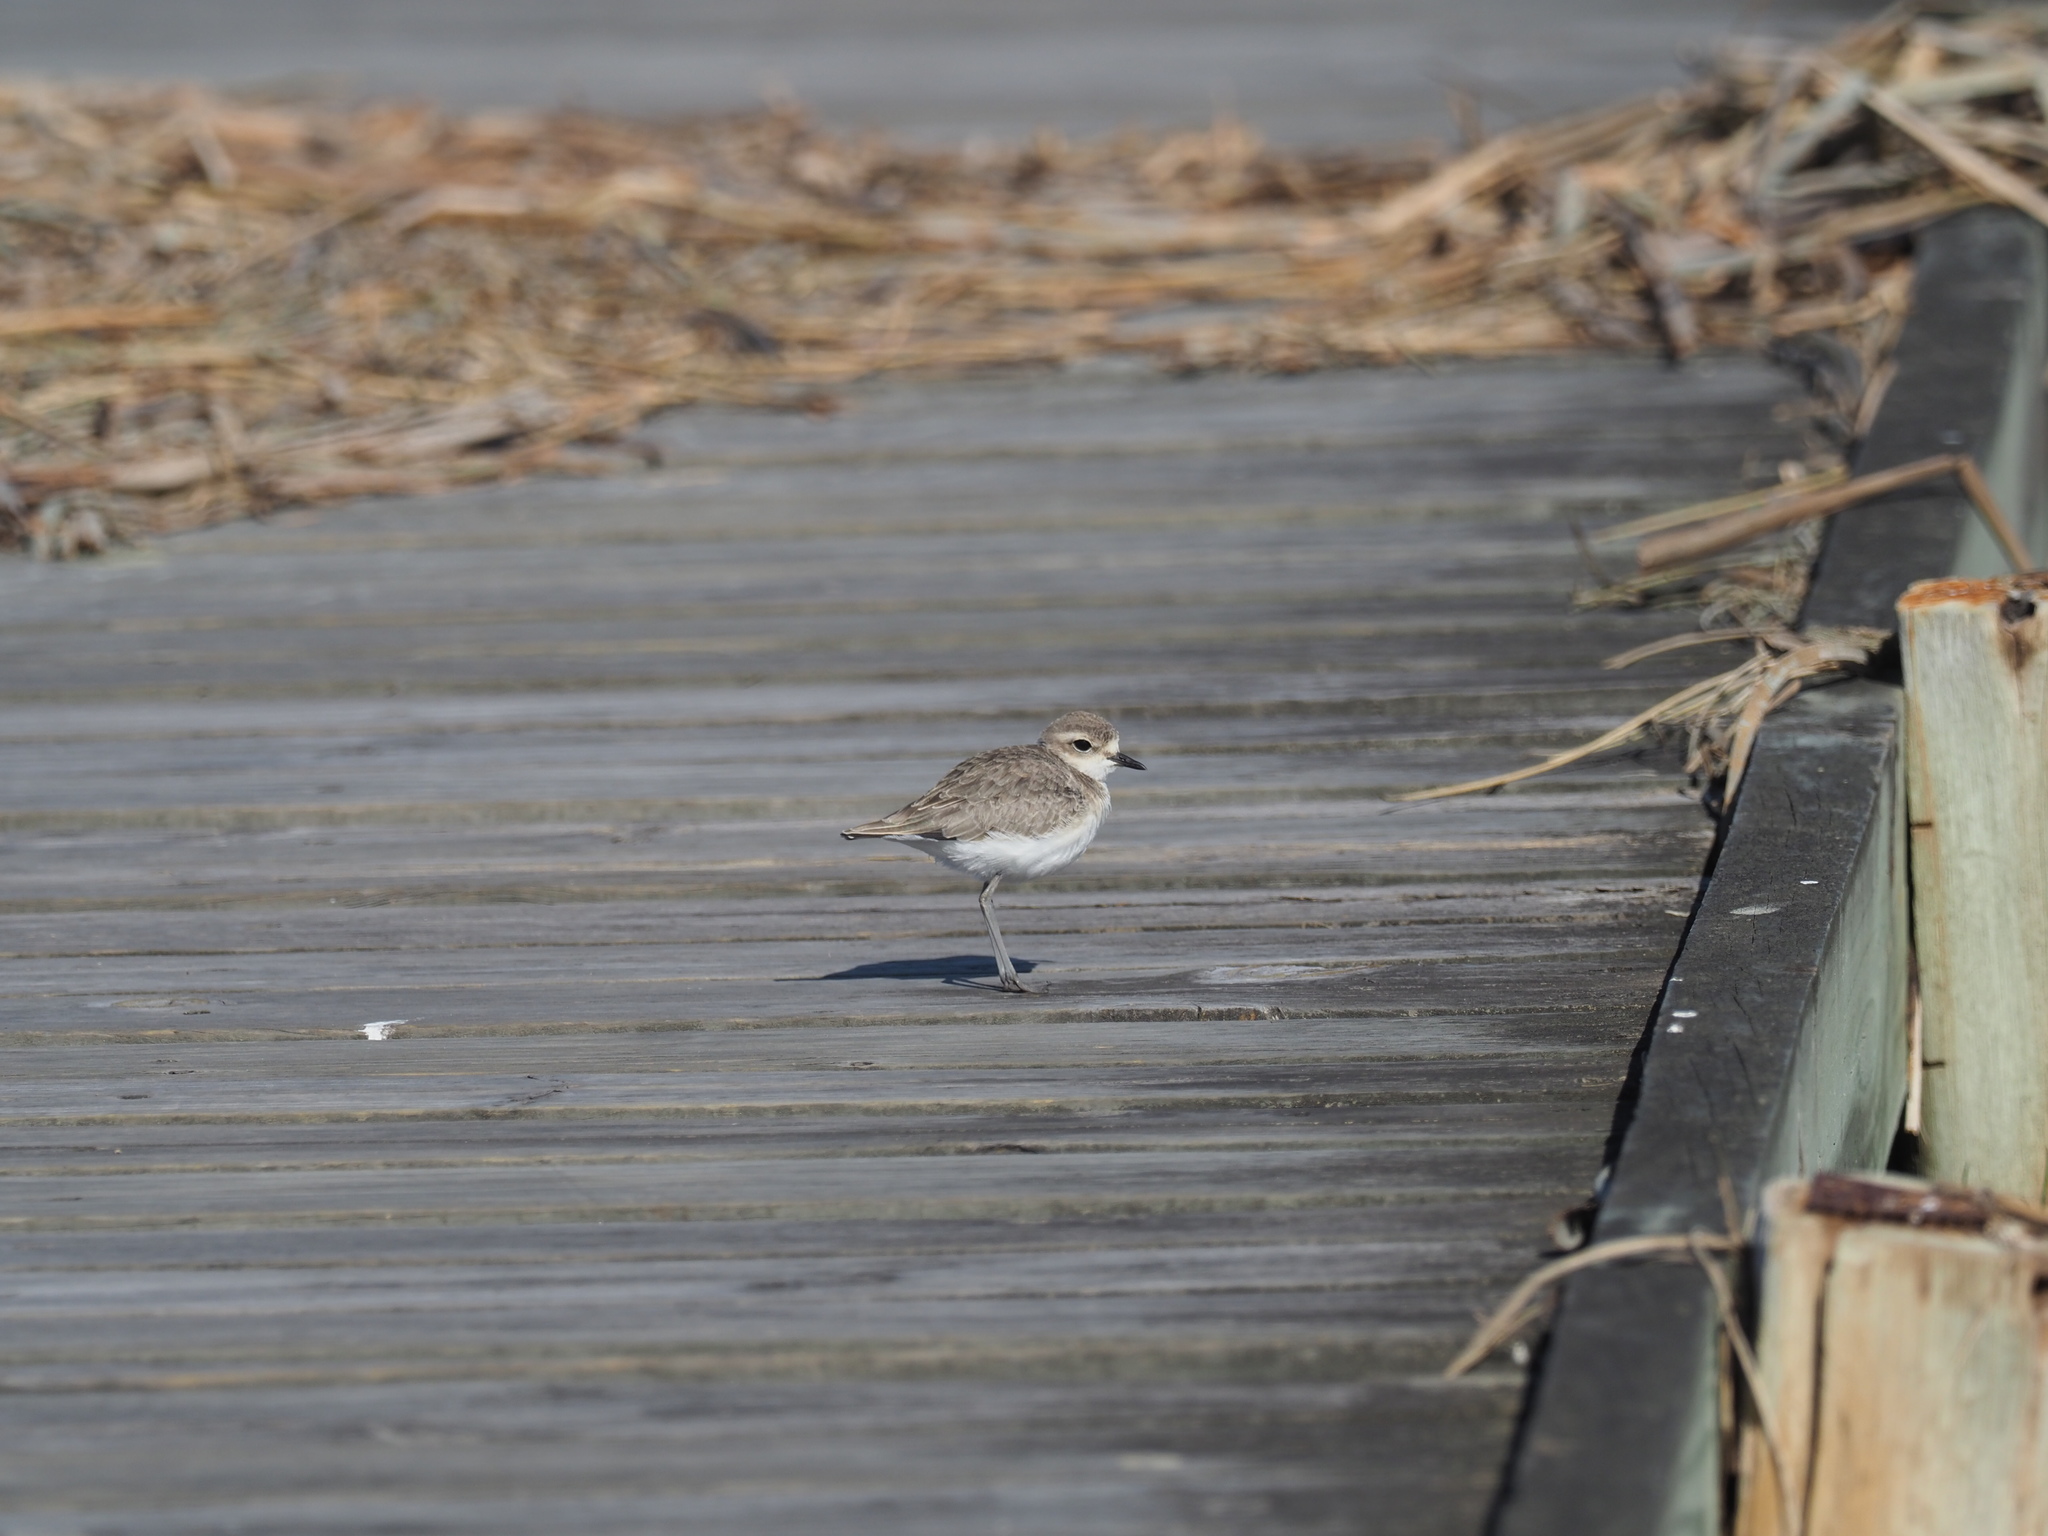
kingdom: Animalia
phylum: Chordata
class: Aves
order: Charadriiformes
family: Charadriidae
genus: Anarhynchus
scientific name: Anarhynchus
